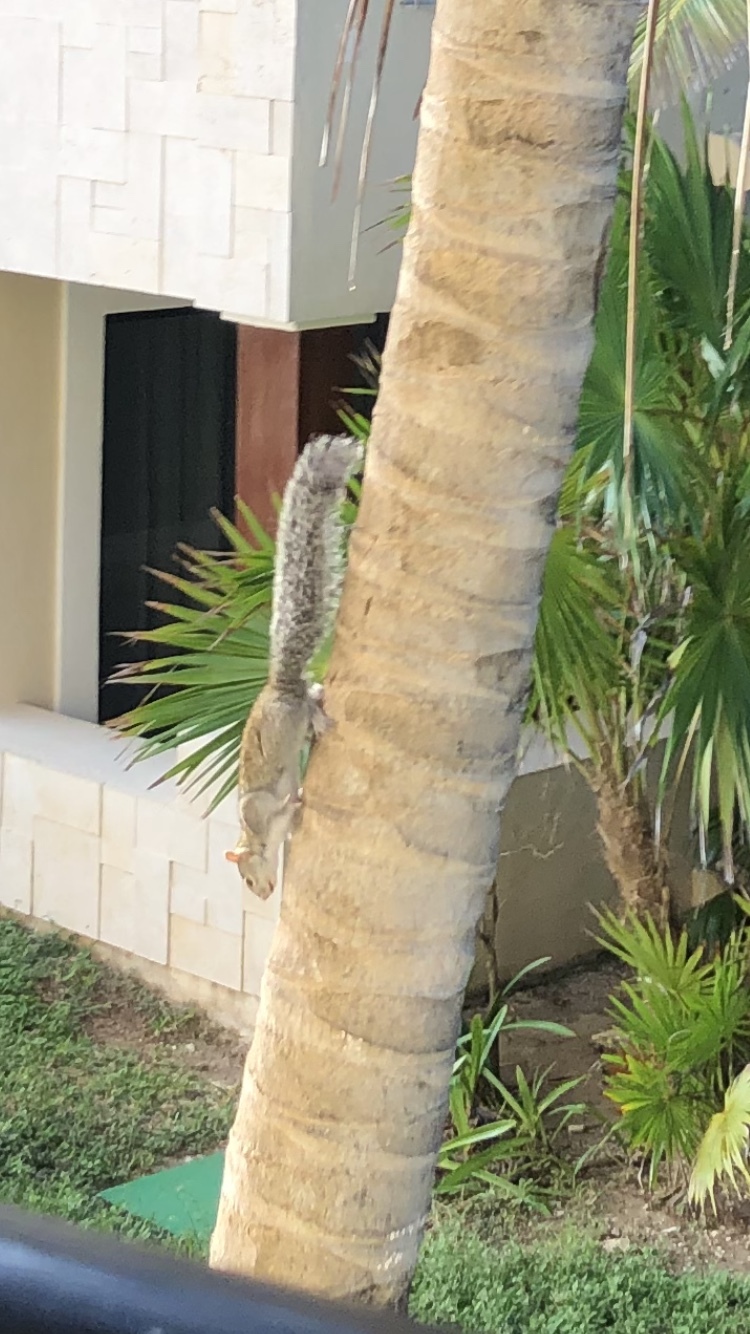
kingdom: Animalia
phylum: Chordata
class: Mammalia
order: Rodentia
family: Sciuridae
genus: Sciurus
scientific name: Sciurus yucatanensis
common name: Yucatan squirrel
